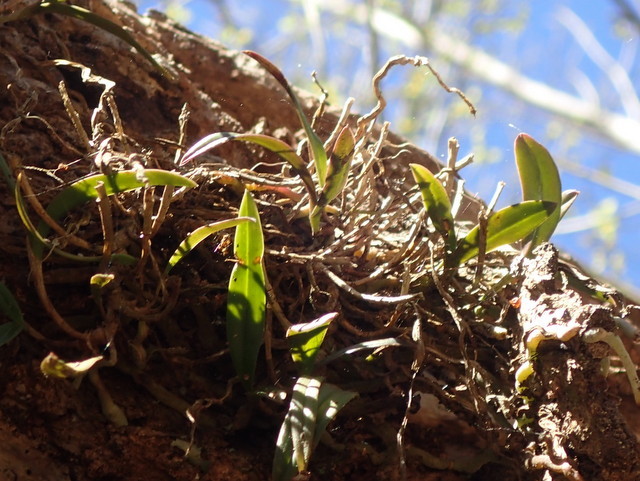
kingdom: Plantae
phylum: Tracheophyta
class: Liliopsida
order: Asparagales
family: Orchidaceae
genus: Epidendrum
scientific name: Epidendrum conopseum
